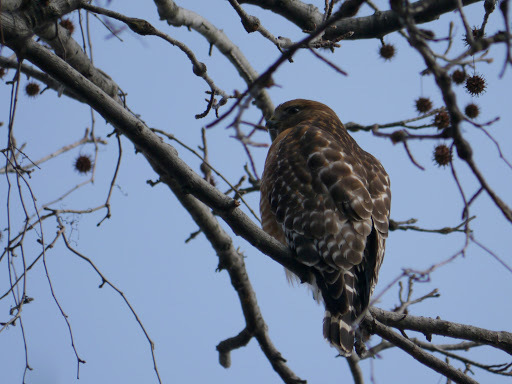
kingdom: Animalia
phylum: Chordata
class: Aves
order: Accipitriformes
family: Accipitridae
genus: Buteo
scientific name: Buteo lineatus
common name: Red-shouldered hawk
